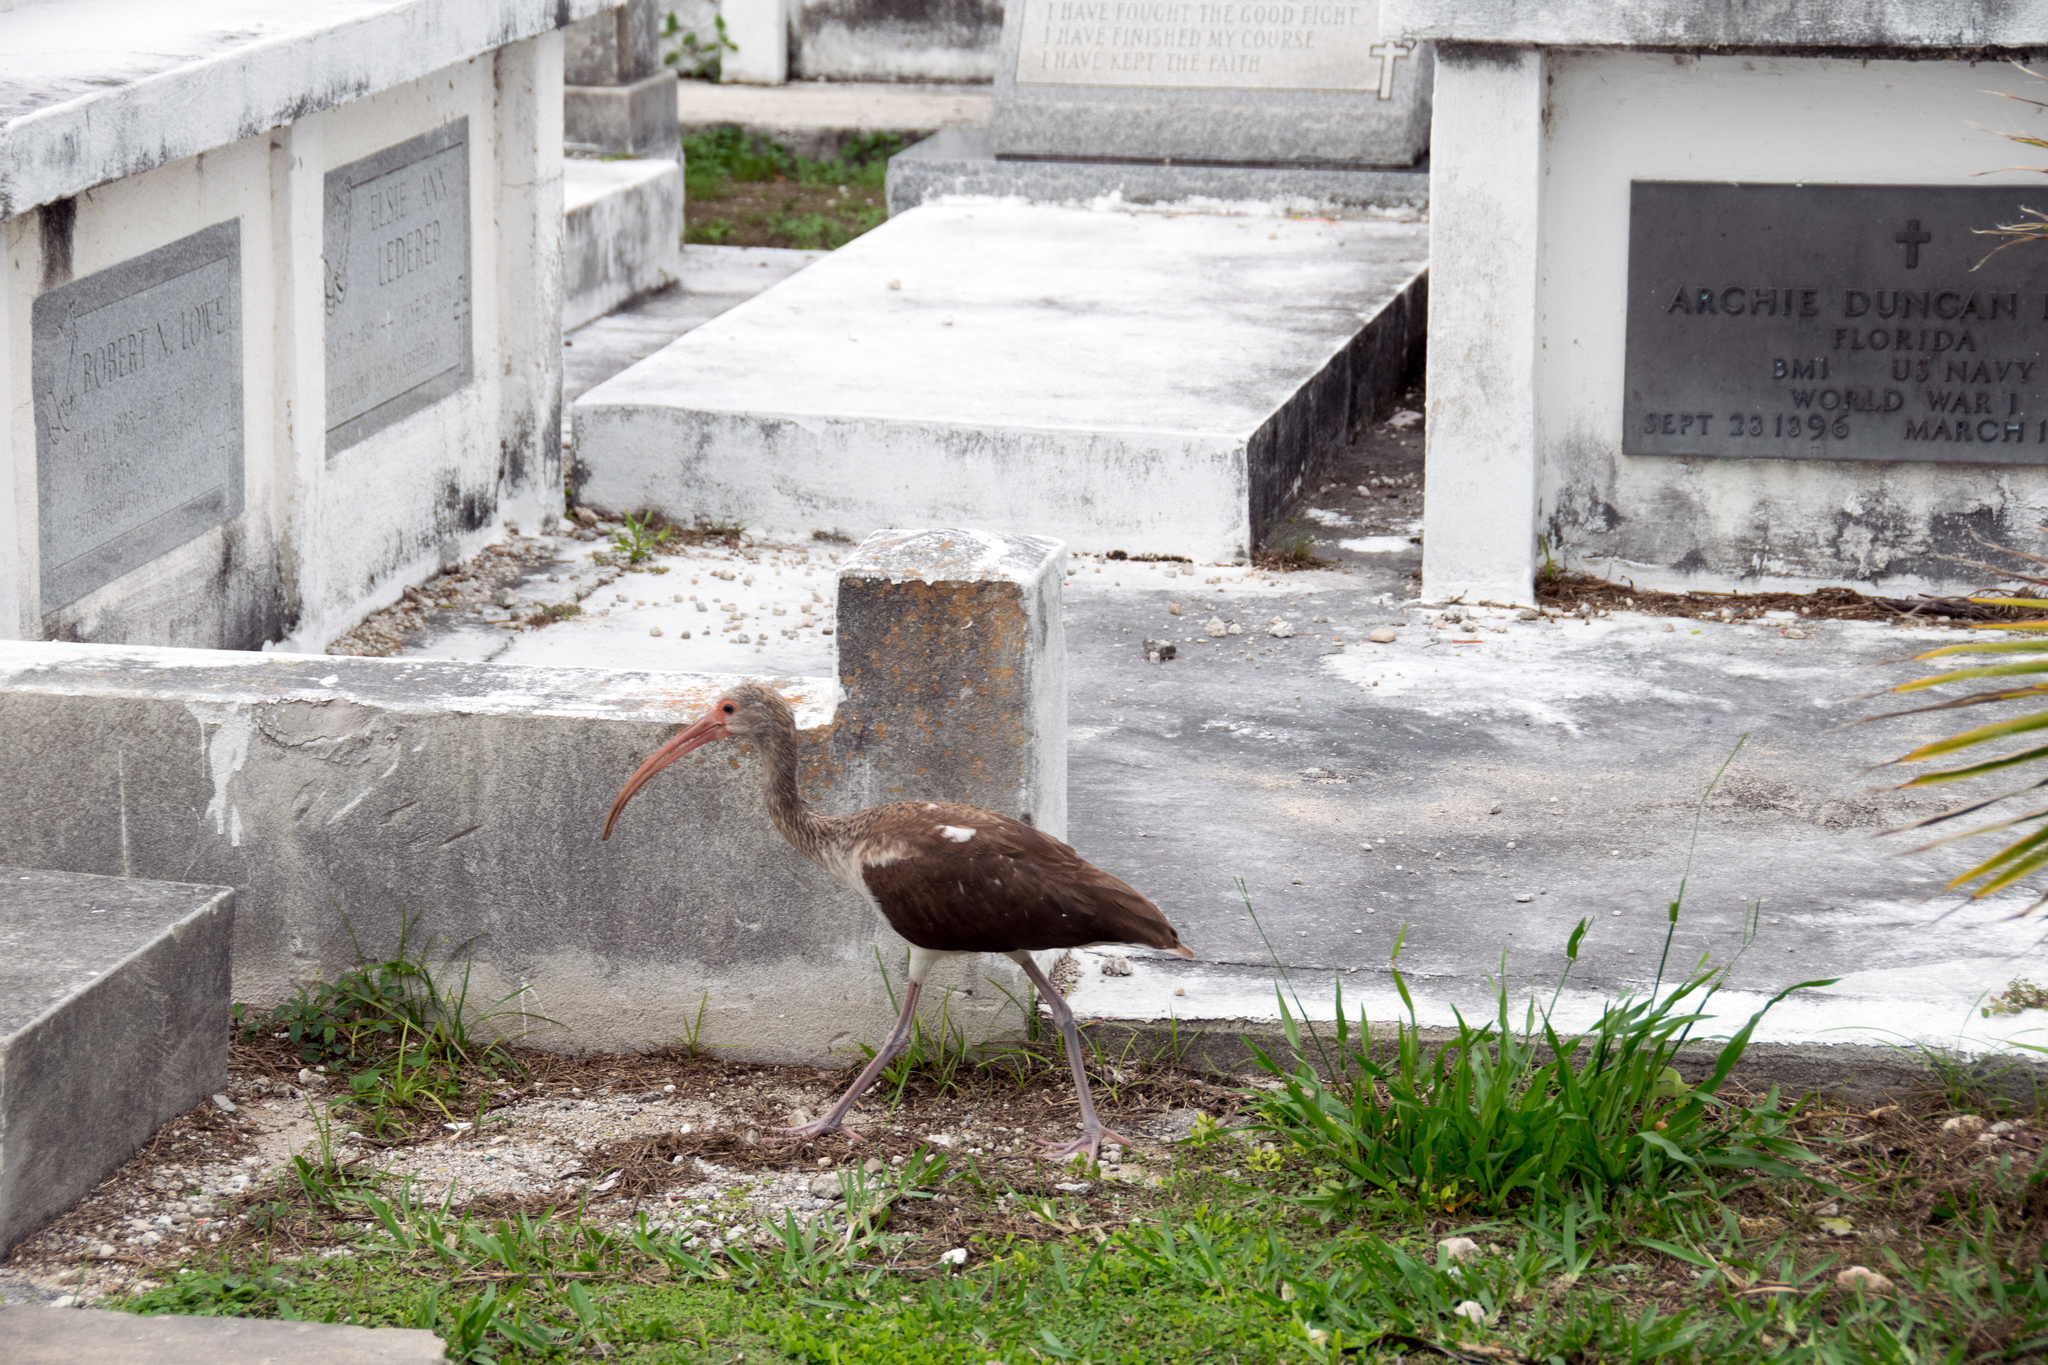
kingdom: Animalia
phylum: Chordata
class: Aves
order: Pelecaniformes
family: Threskiornithidae
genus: Eudocimus
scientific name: Eudocimus albus
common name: White ibis
